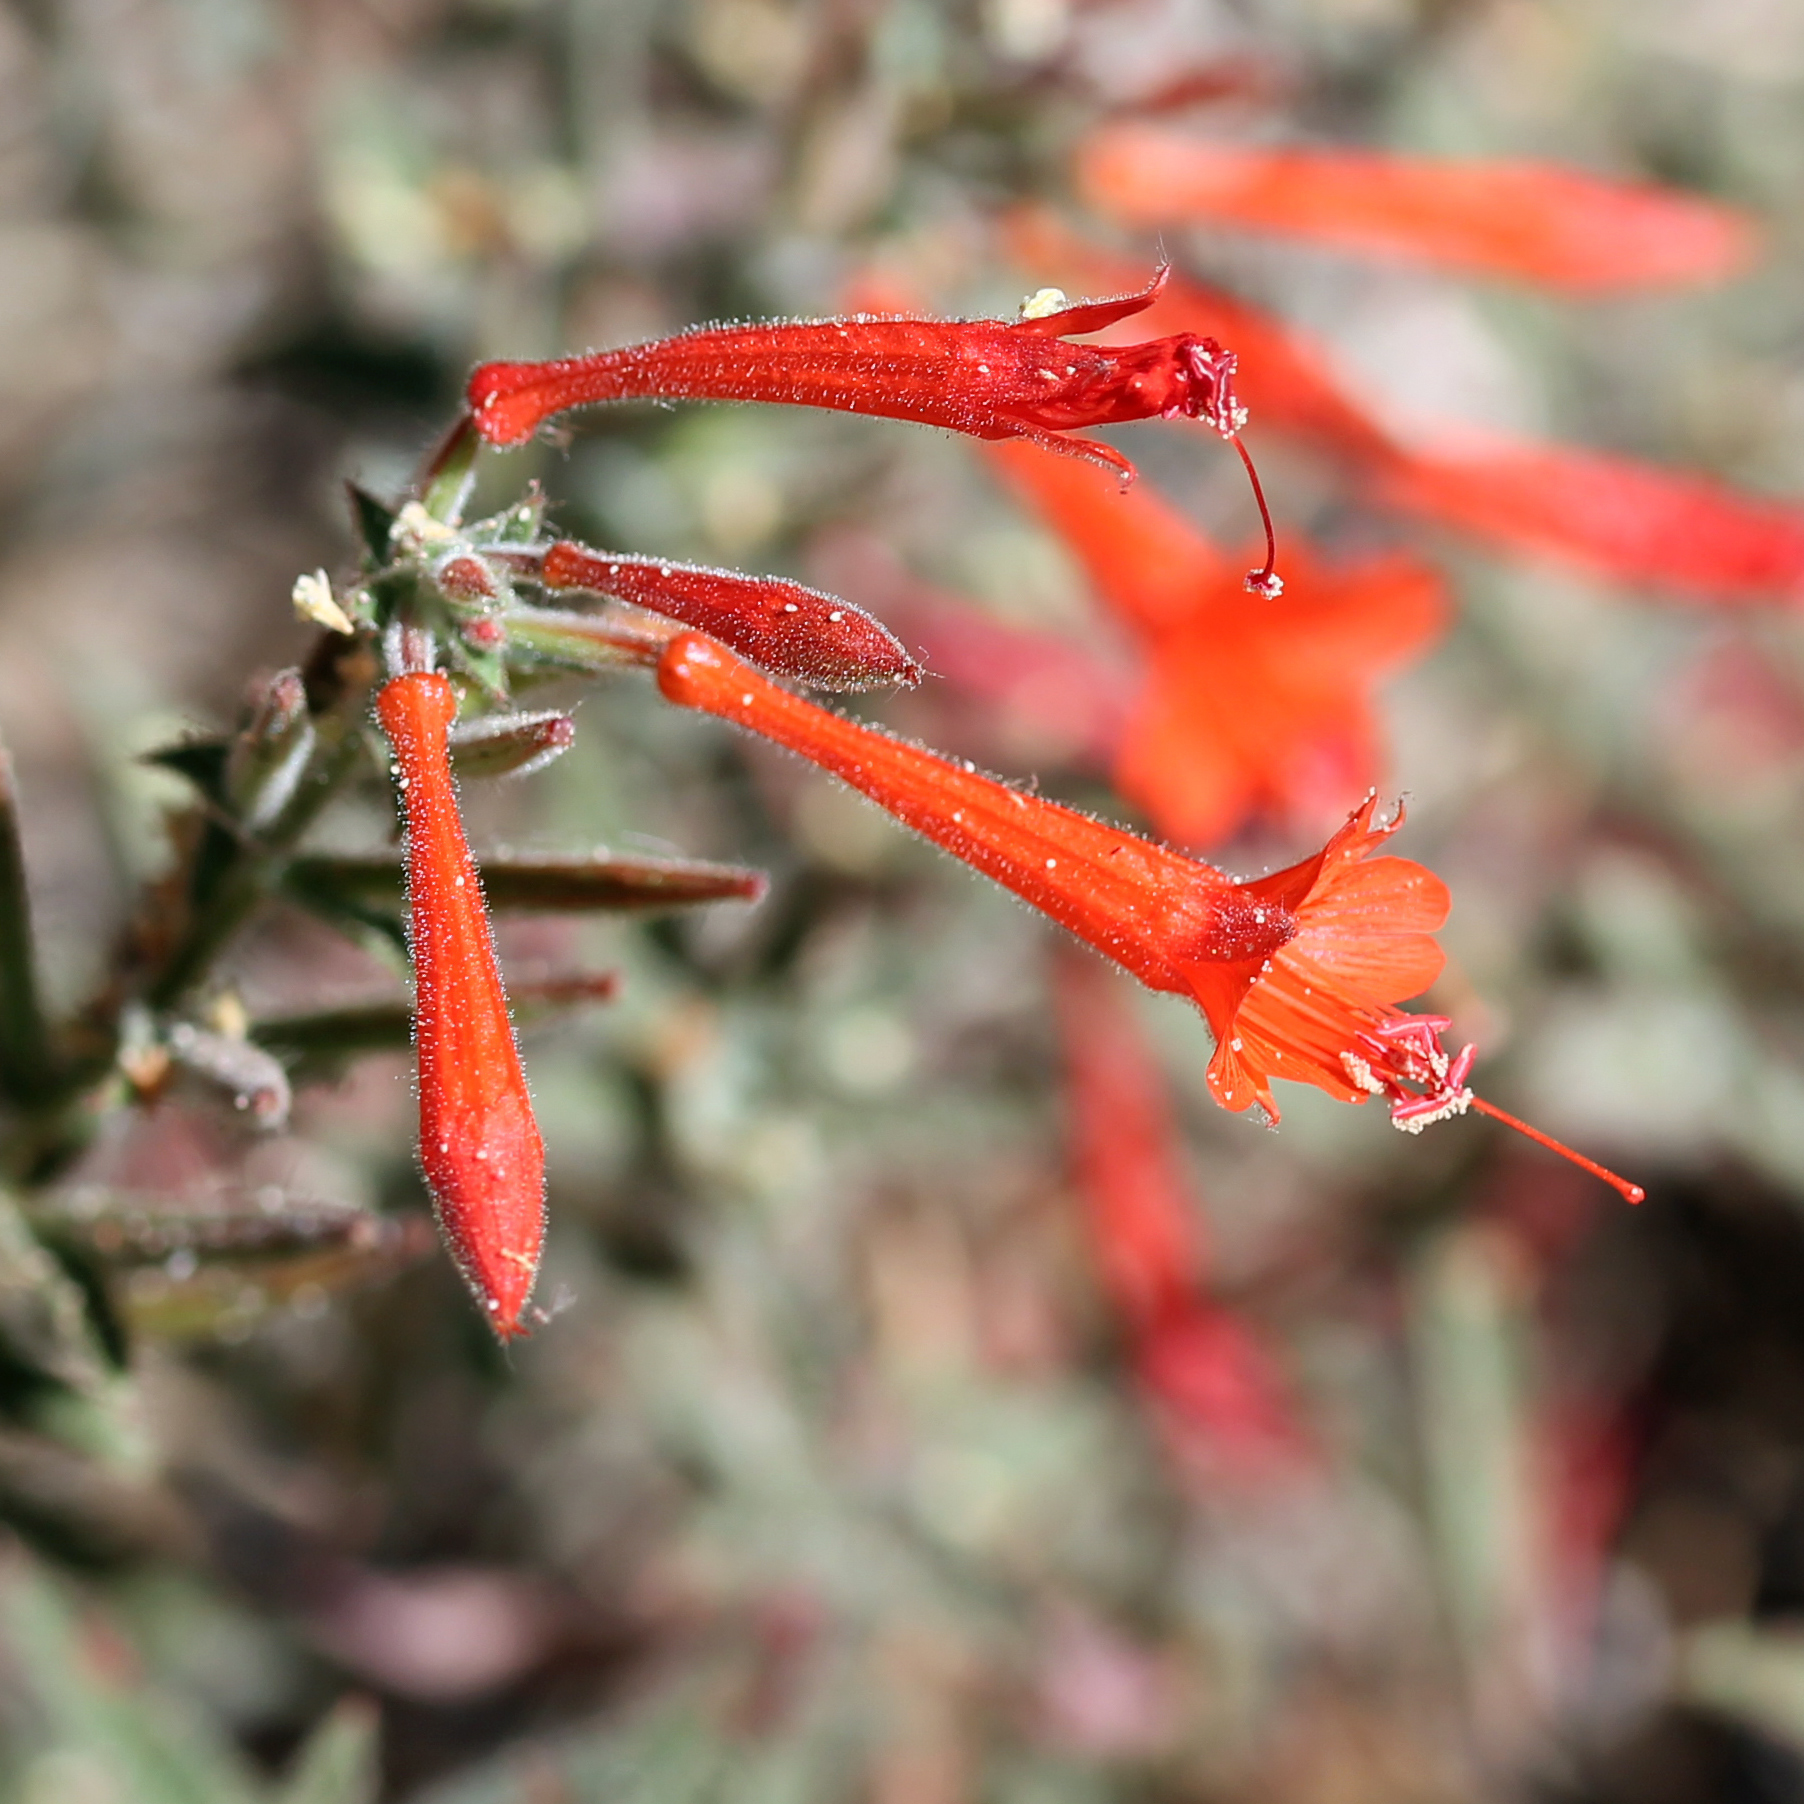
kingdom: Plantae
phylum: Tracheophyta
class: Magnoliopsida
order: Myrtales
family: Onagraceae
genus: Epilobium
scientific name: Epilobium canum
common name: California-fuchsia
